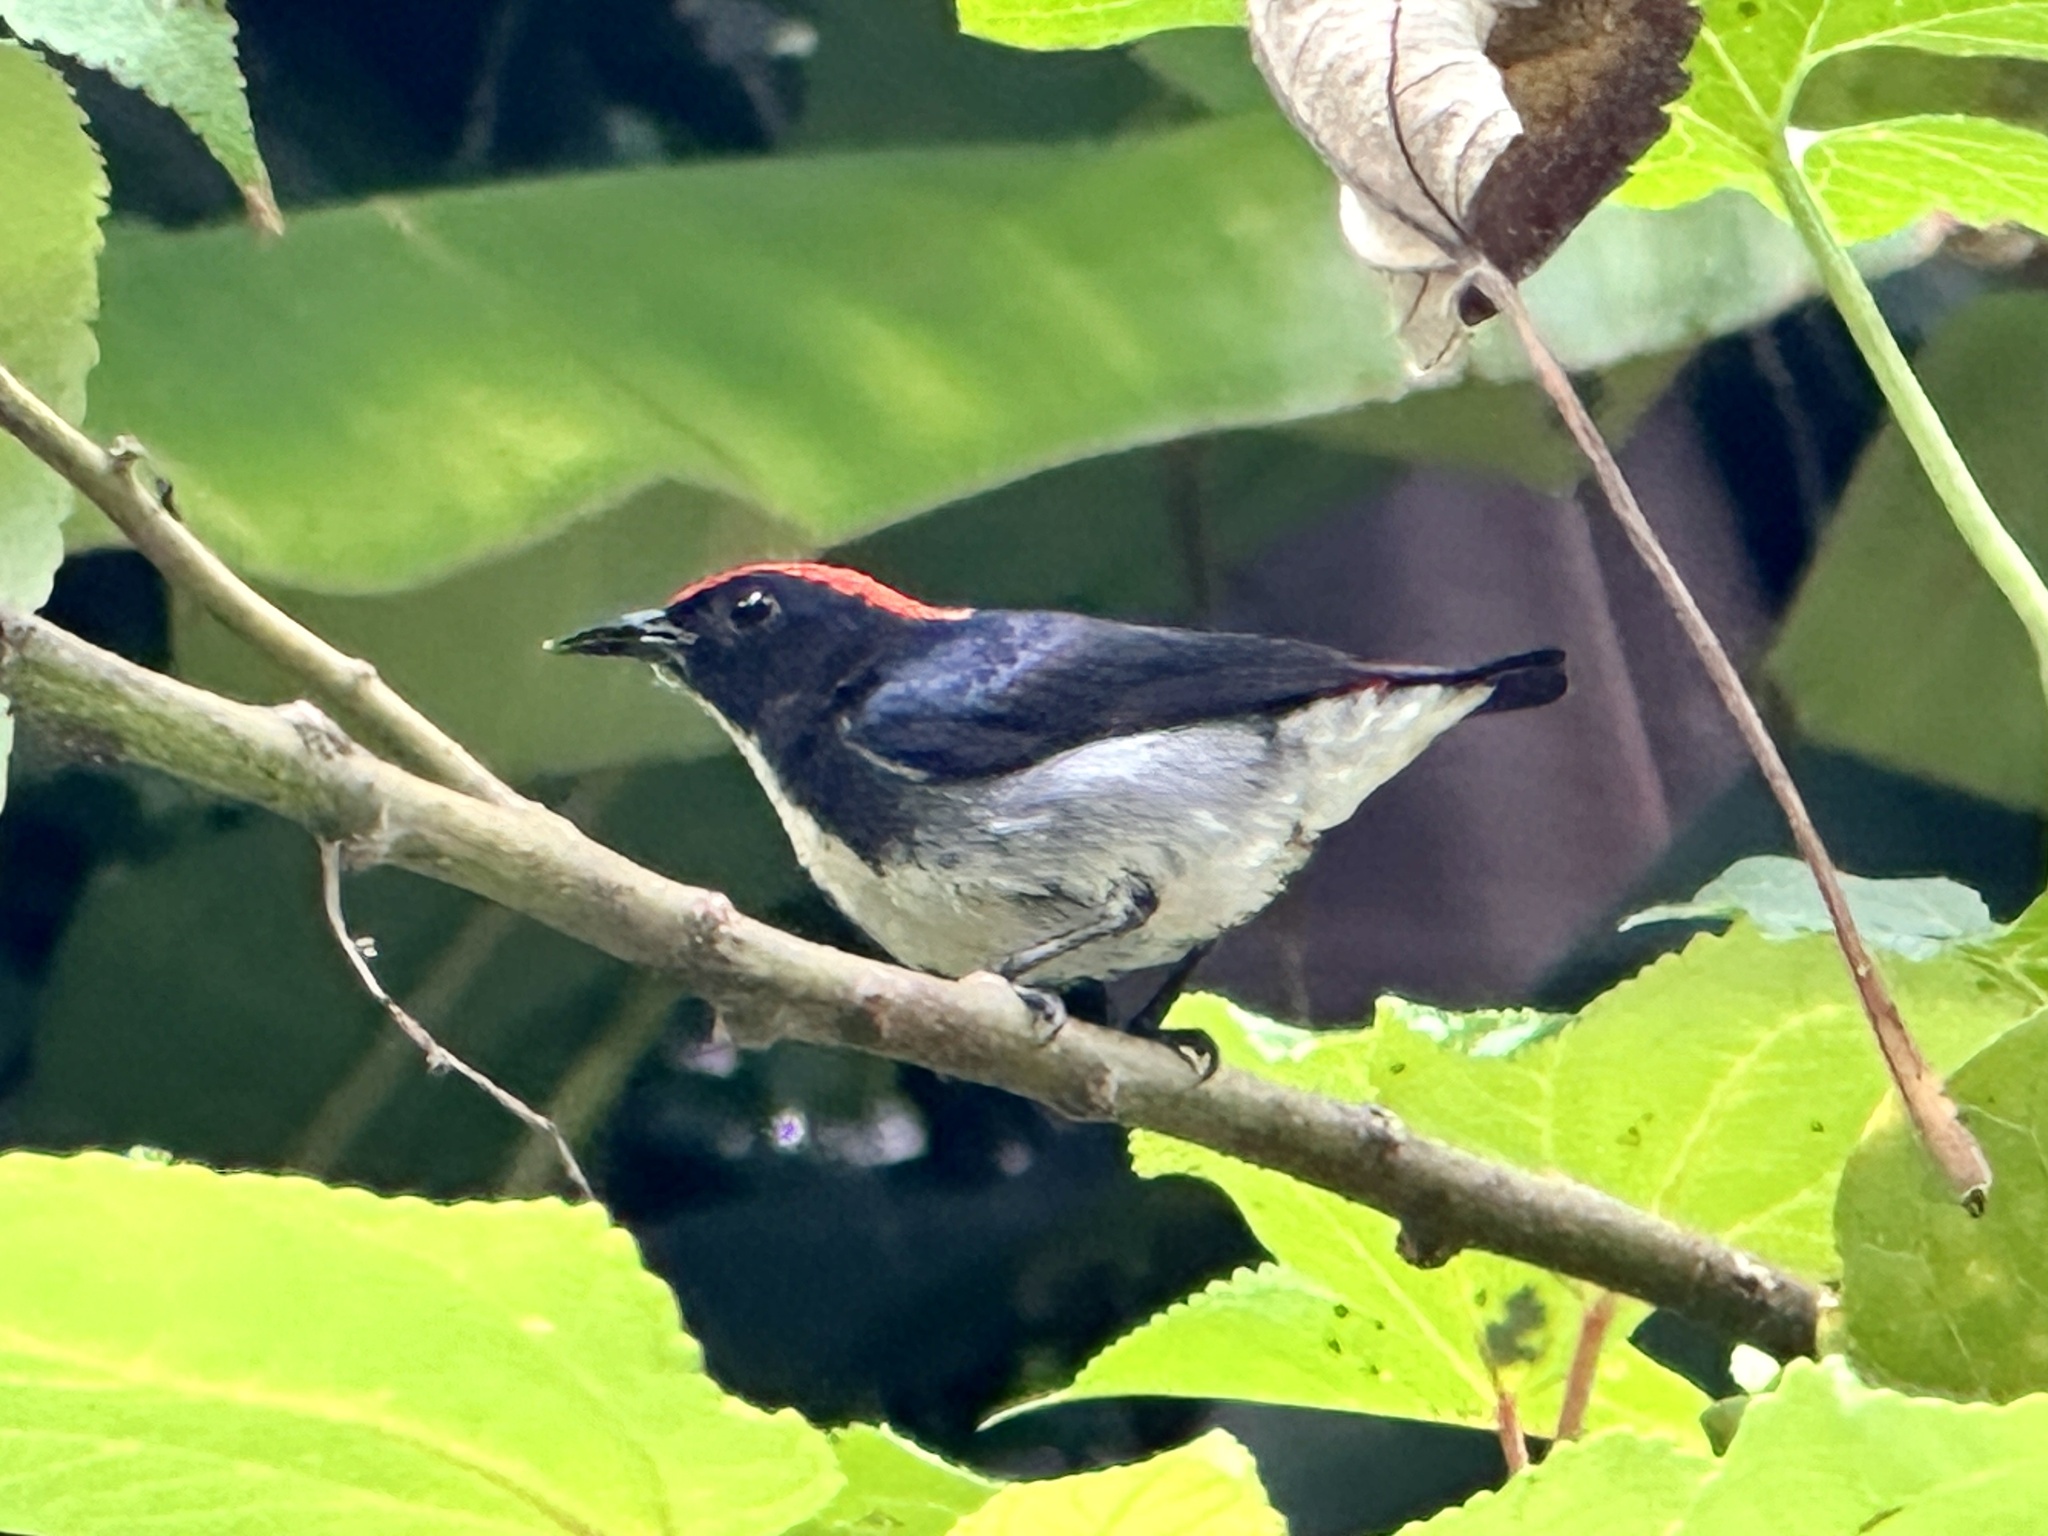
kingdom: Animalia
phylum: Chordata
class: Aves
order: Passeriformes
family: Dicaeidae
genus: Dicaeum
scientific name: Dicaeum cruentatum
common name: Scarlet-backed flowerpecker
